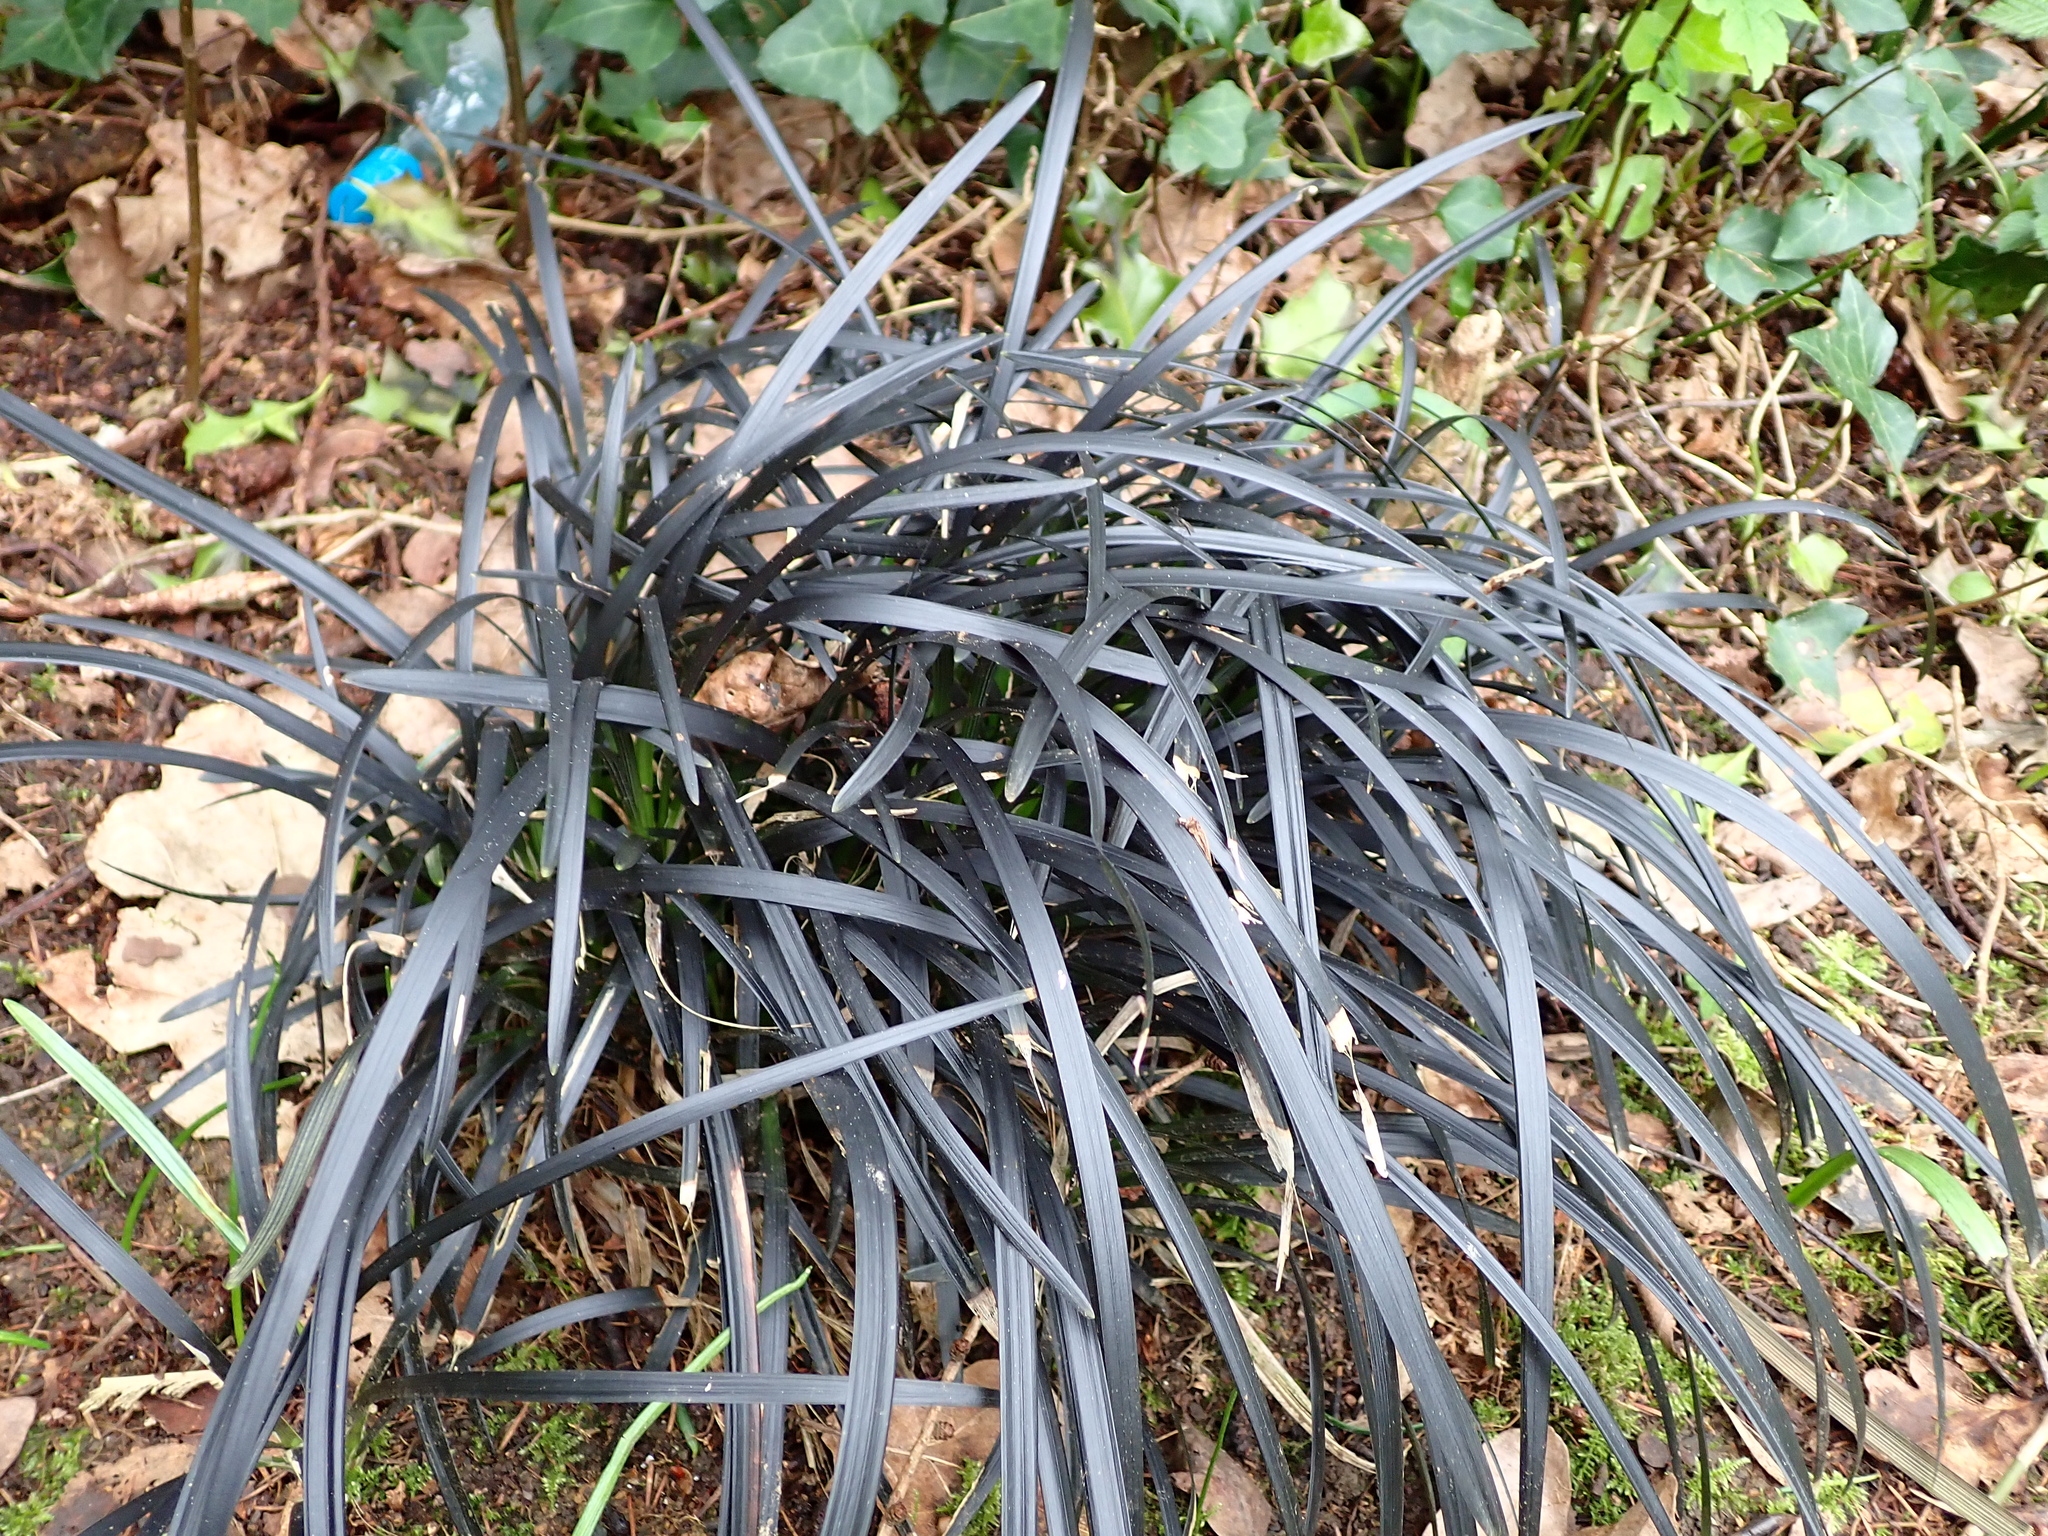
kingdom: Plantae
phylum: Tracheophyta
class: Liliopsida
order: Asparagales
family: Asparagaceae
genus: Ophiopogon
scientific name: Ophiopogon planiscapus
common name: Black mondo
